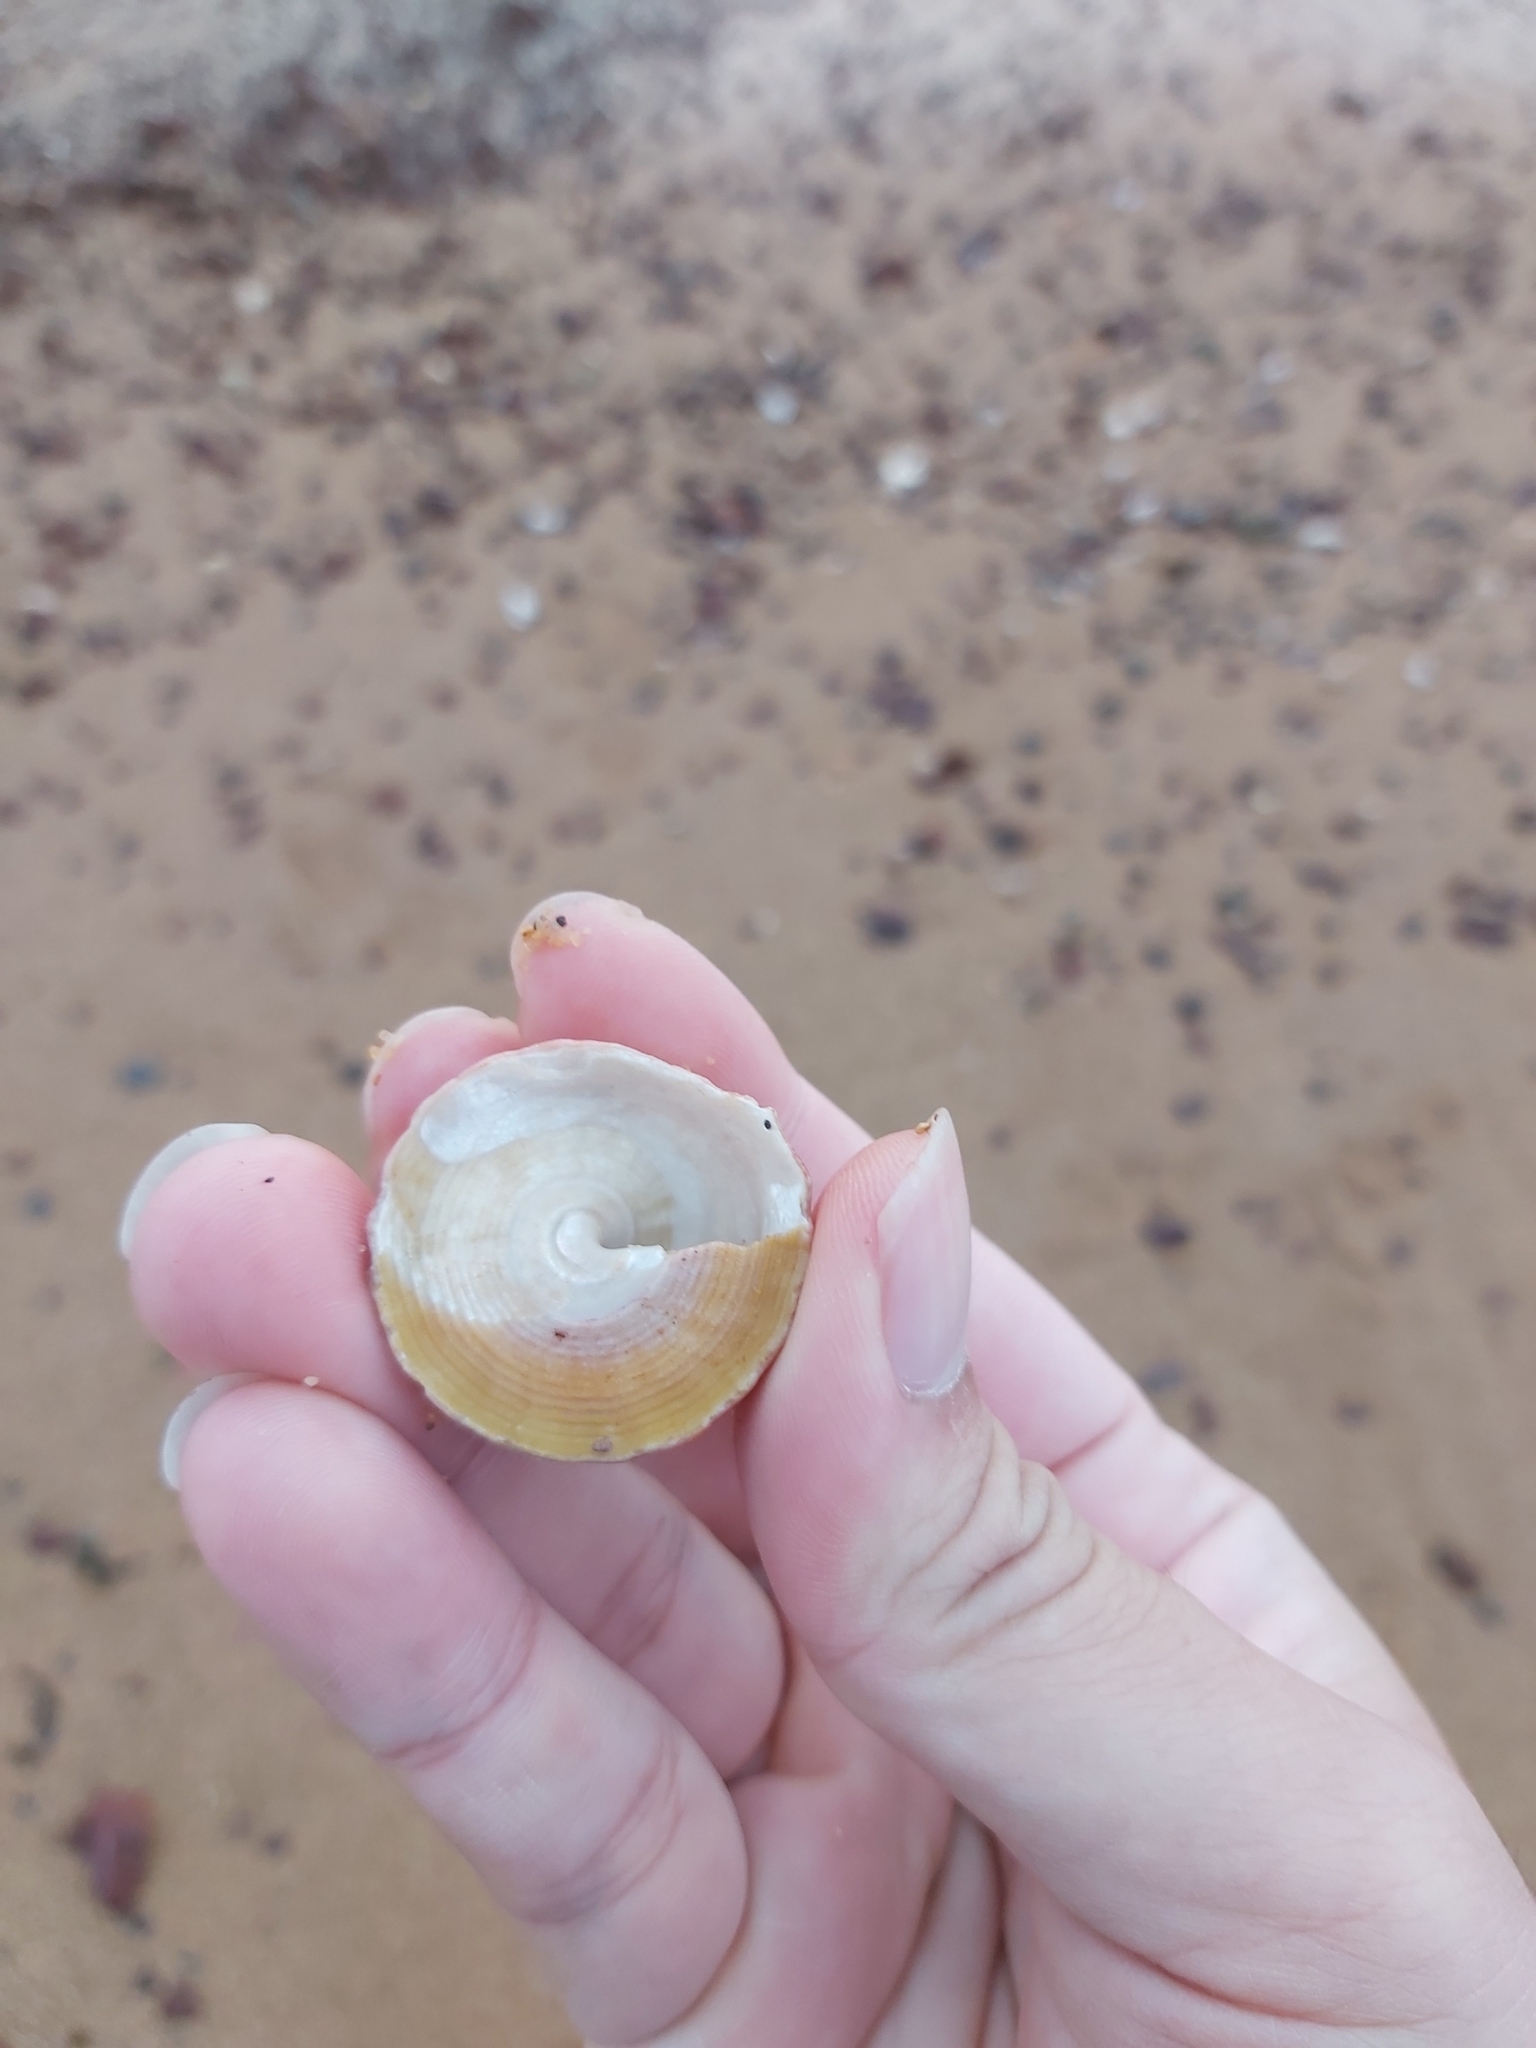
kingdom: Animalia
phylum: Mollusca
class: Gastropoda
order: Trochida
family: Turbinidae
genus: Astralium
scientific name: Astralium tentoriiforme
